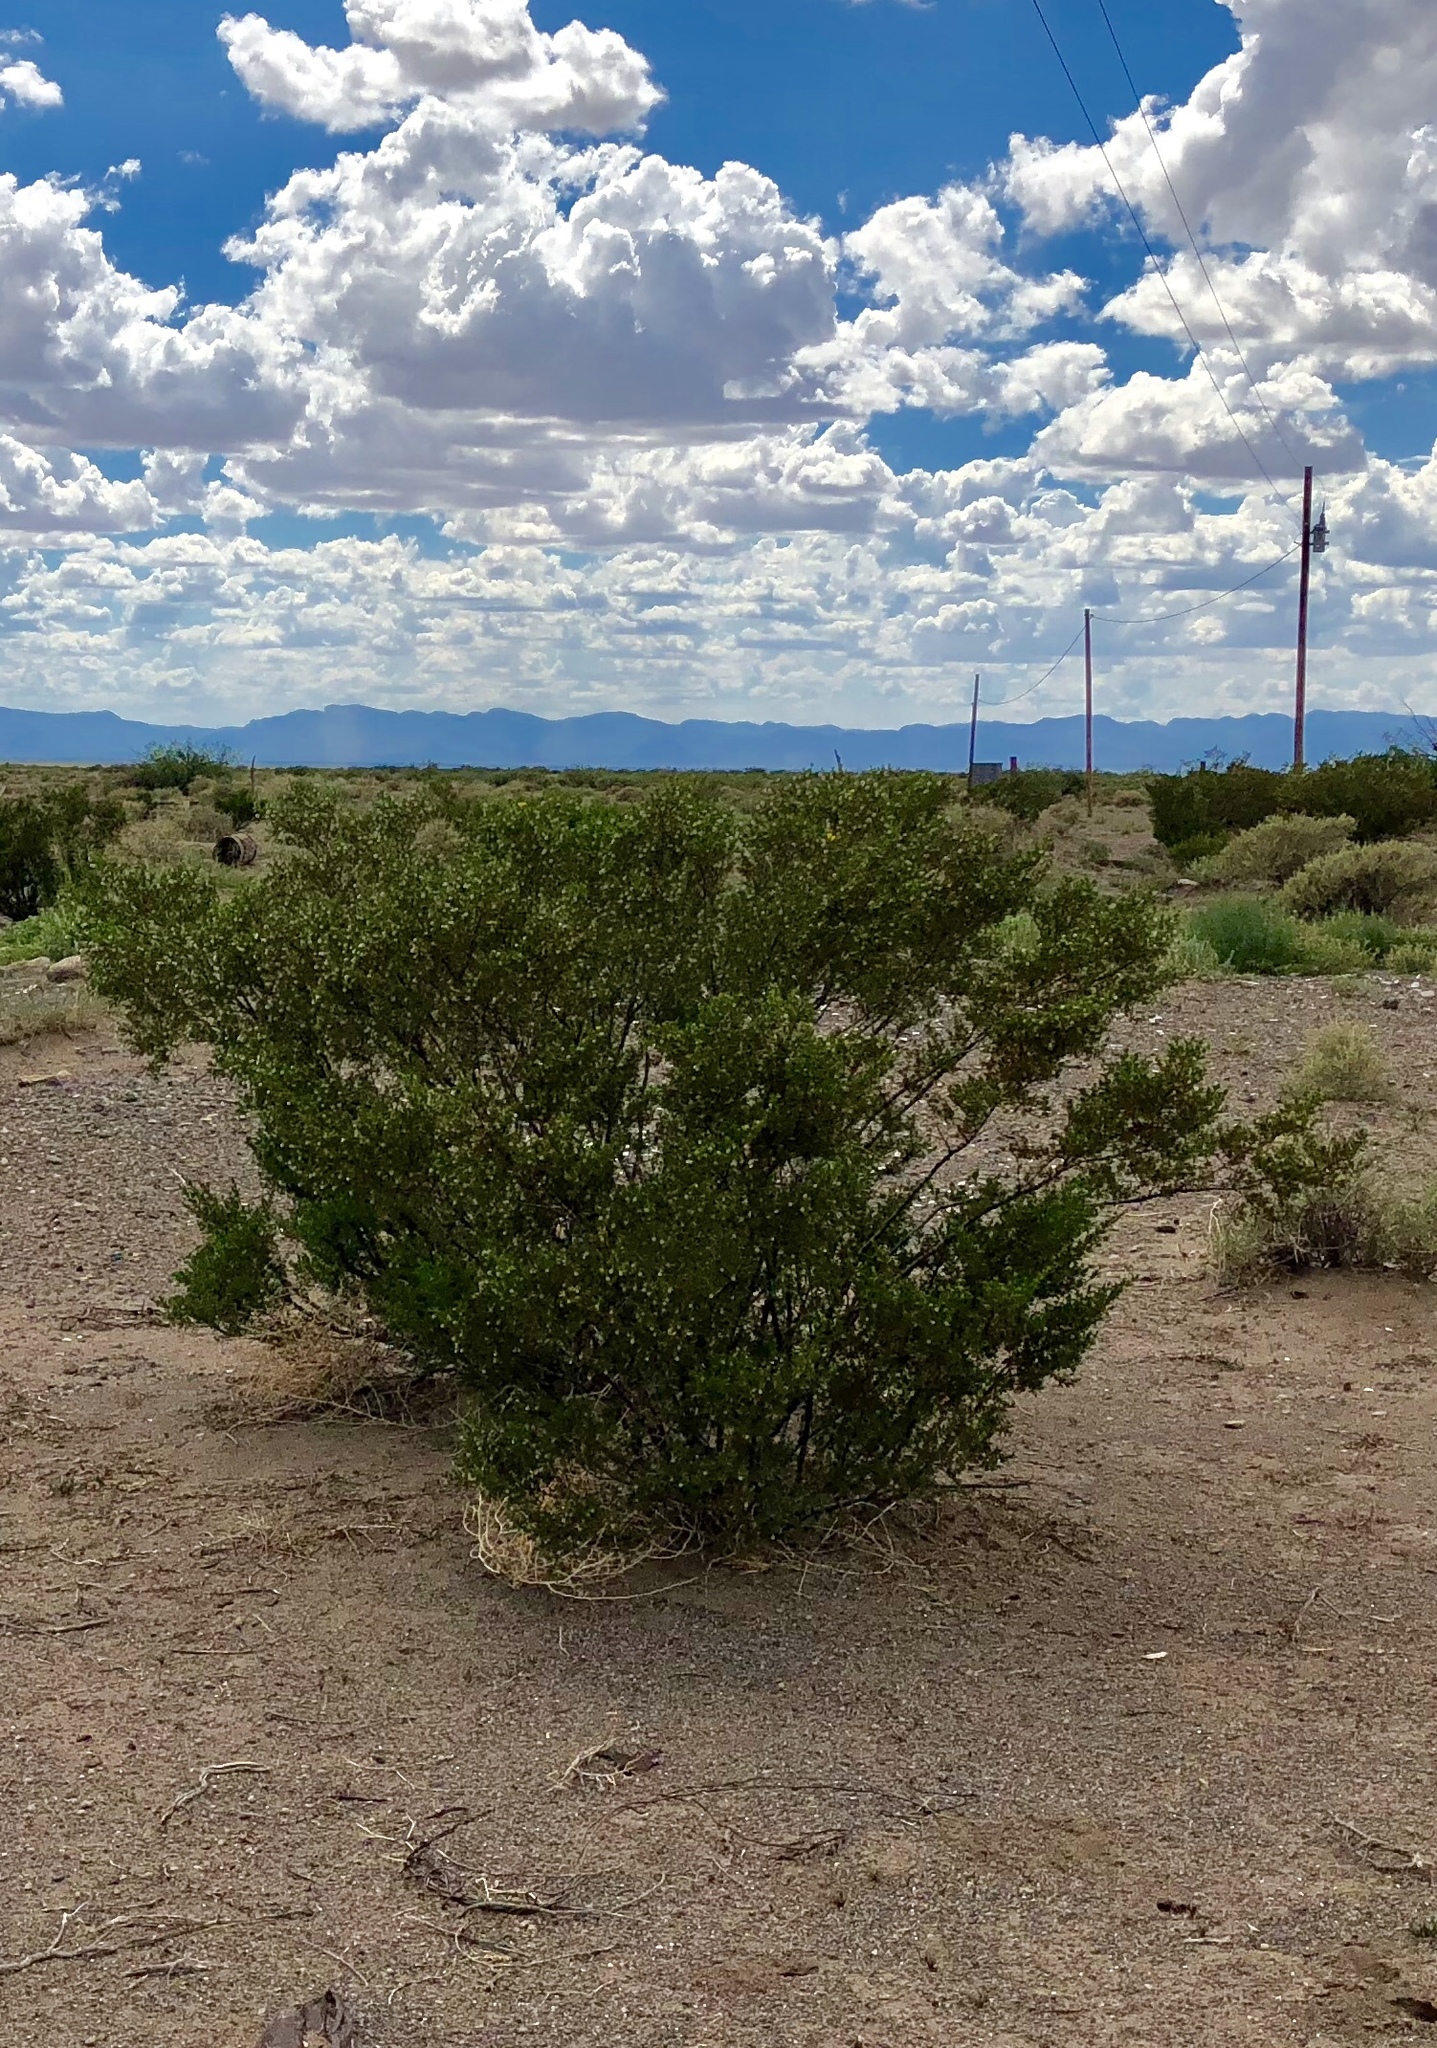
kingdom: Plantae
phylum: Tracheophyta
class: Magnoliopsida
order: Zygophyllales
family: Zygophyllaceae
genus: Larrea
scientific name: Larrea tridentata
